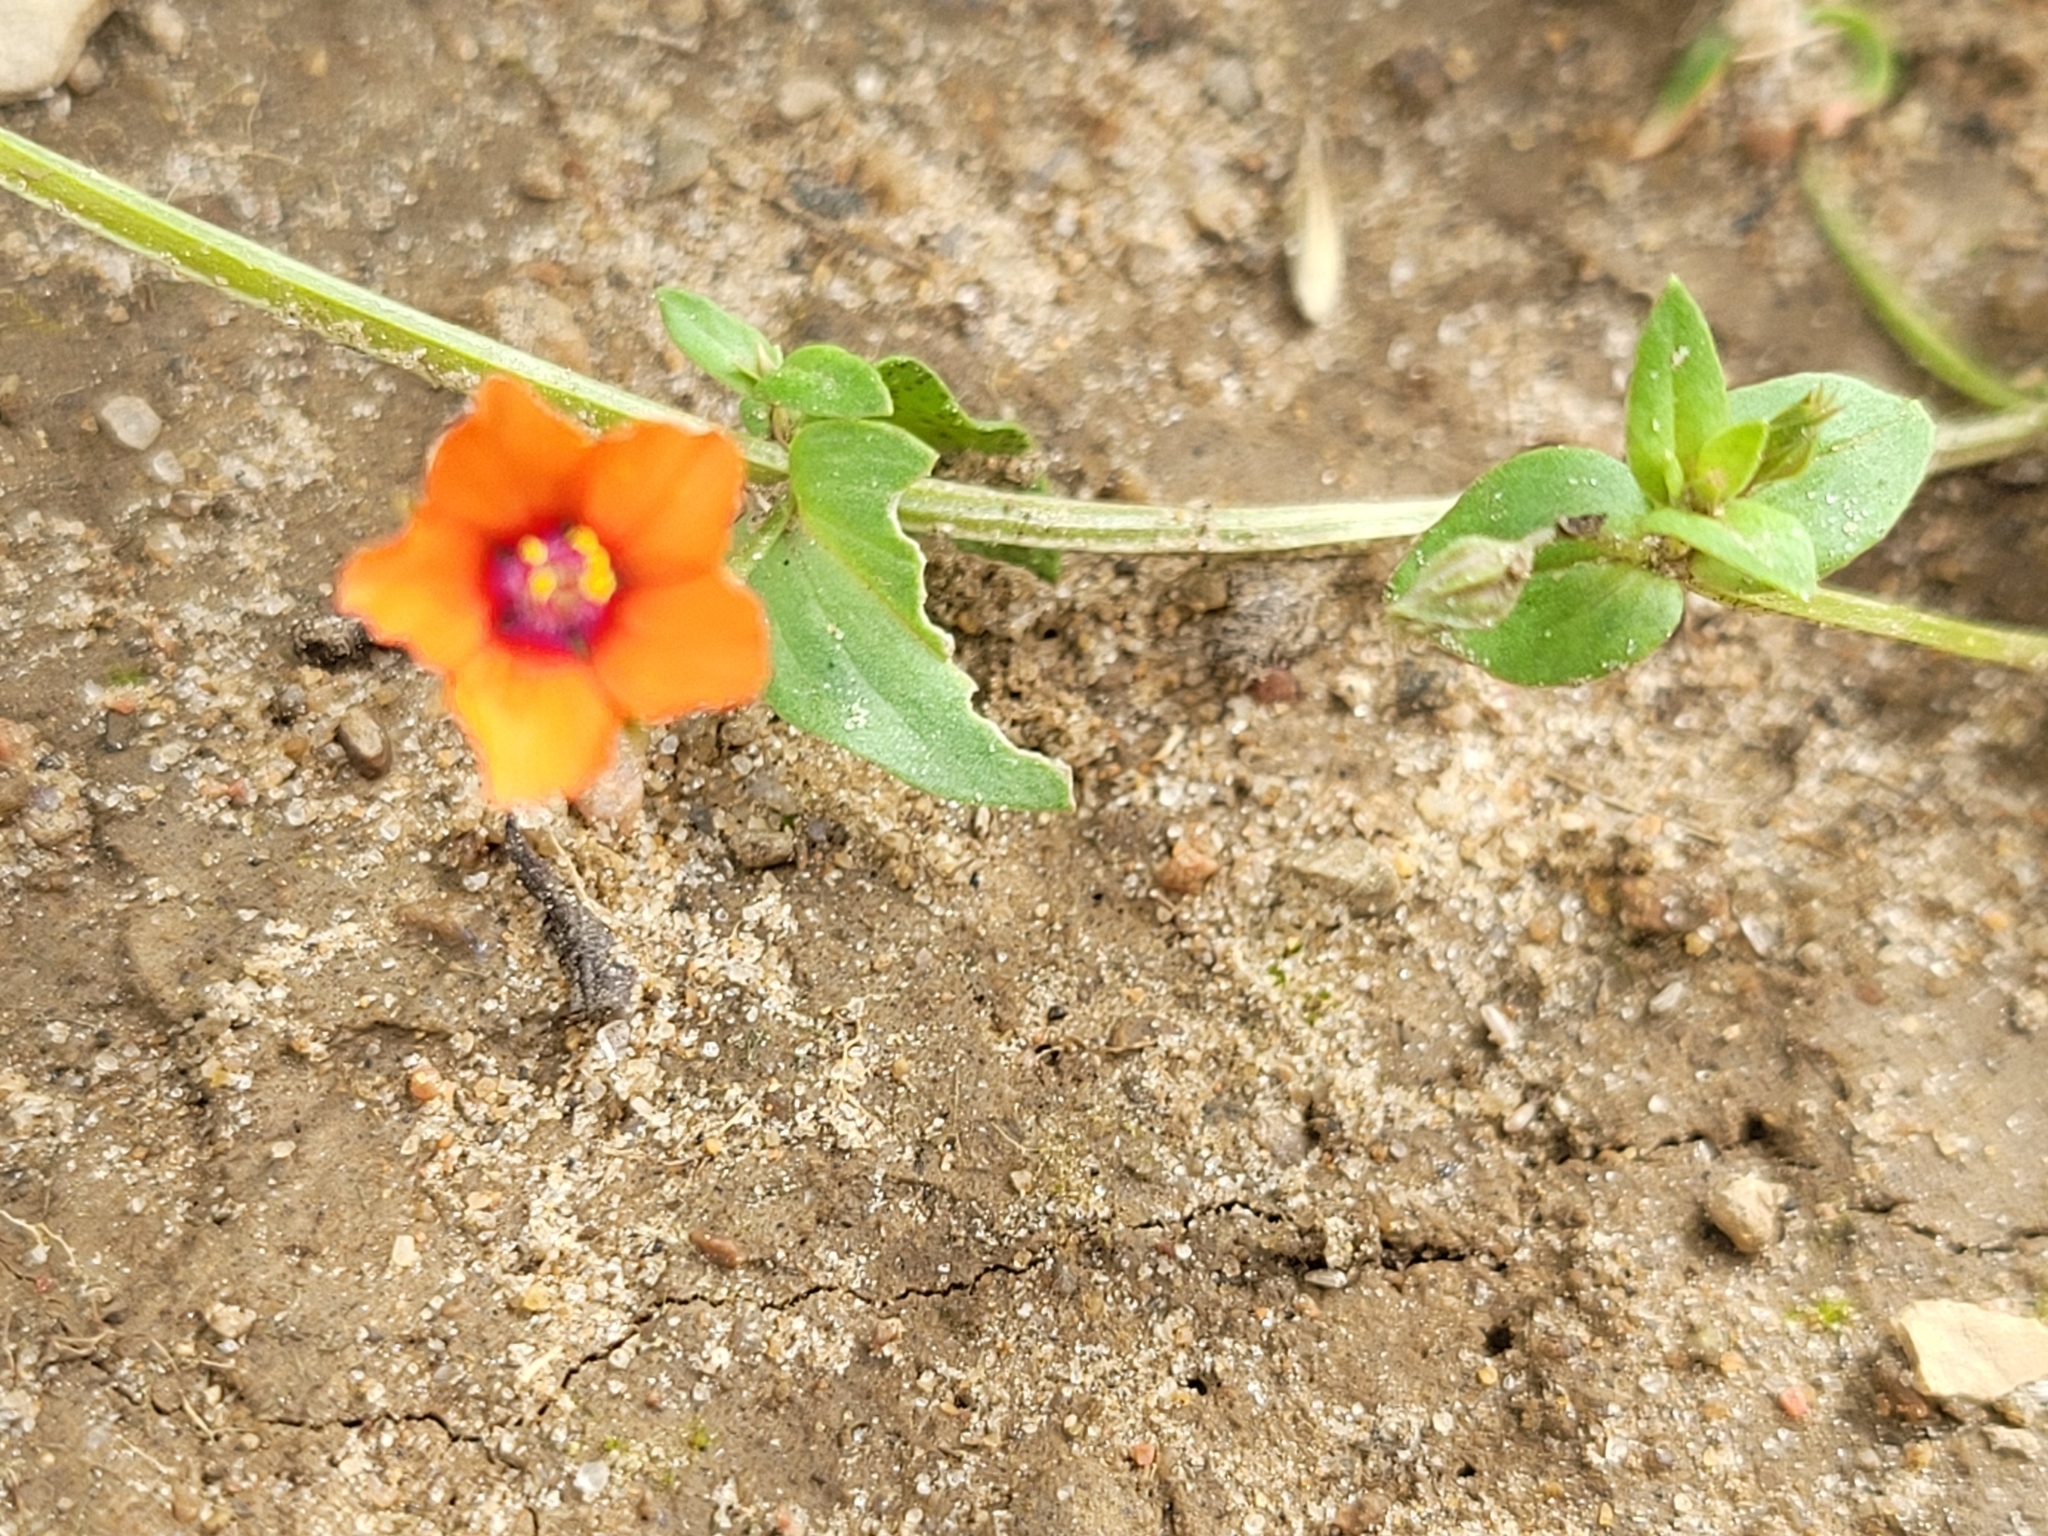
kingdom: Plantae
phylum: Tracheophyta
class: Magnoliopsida
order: Ericales
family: Primulaceae
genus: Lysimachia
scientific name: Lysimachia arvensis
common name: Scarlet pimpernel
